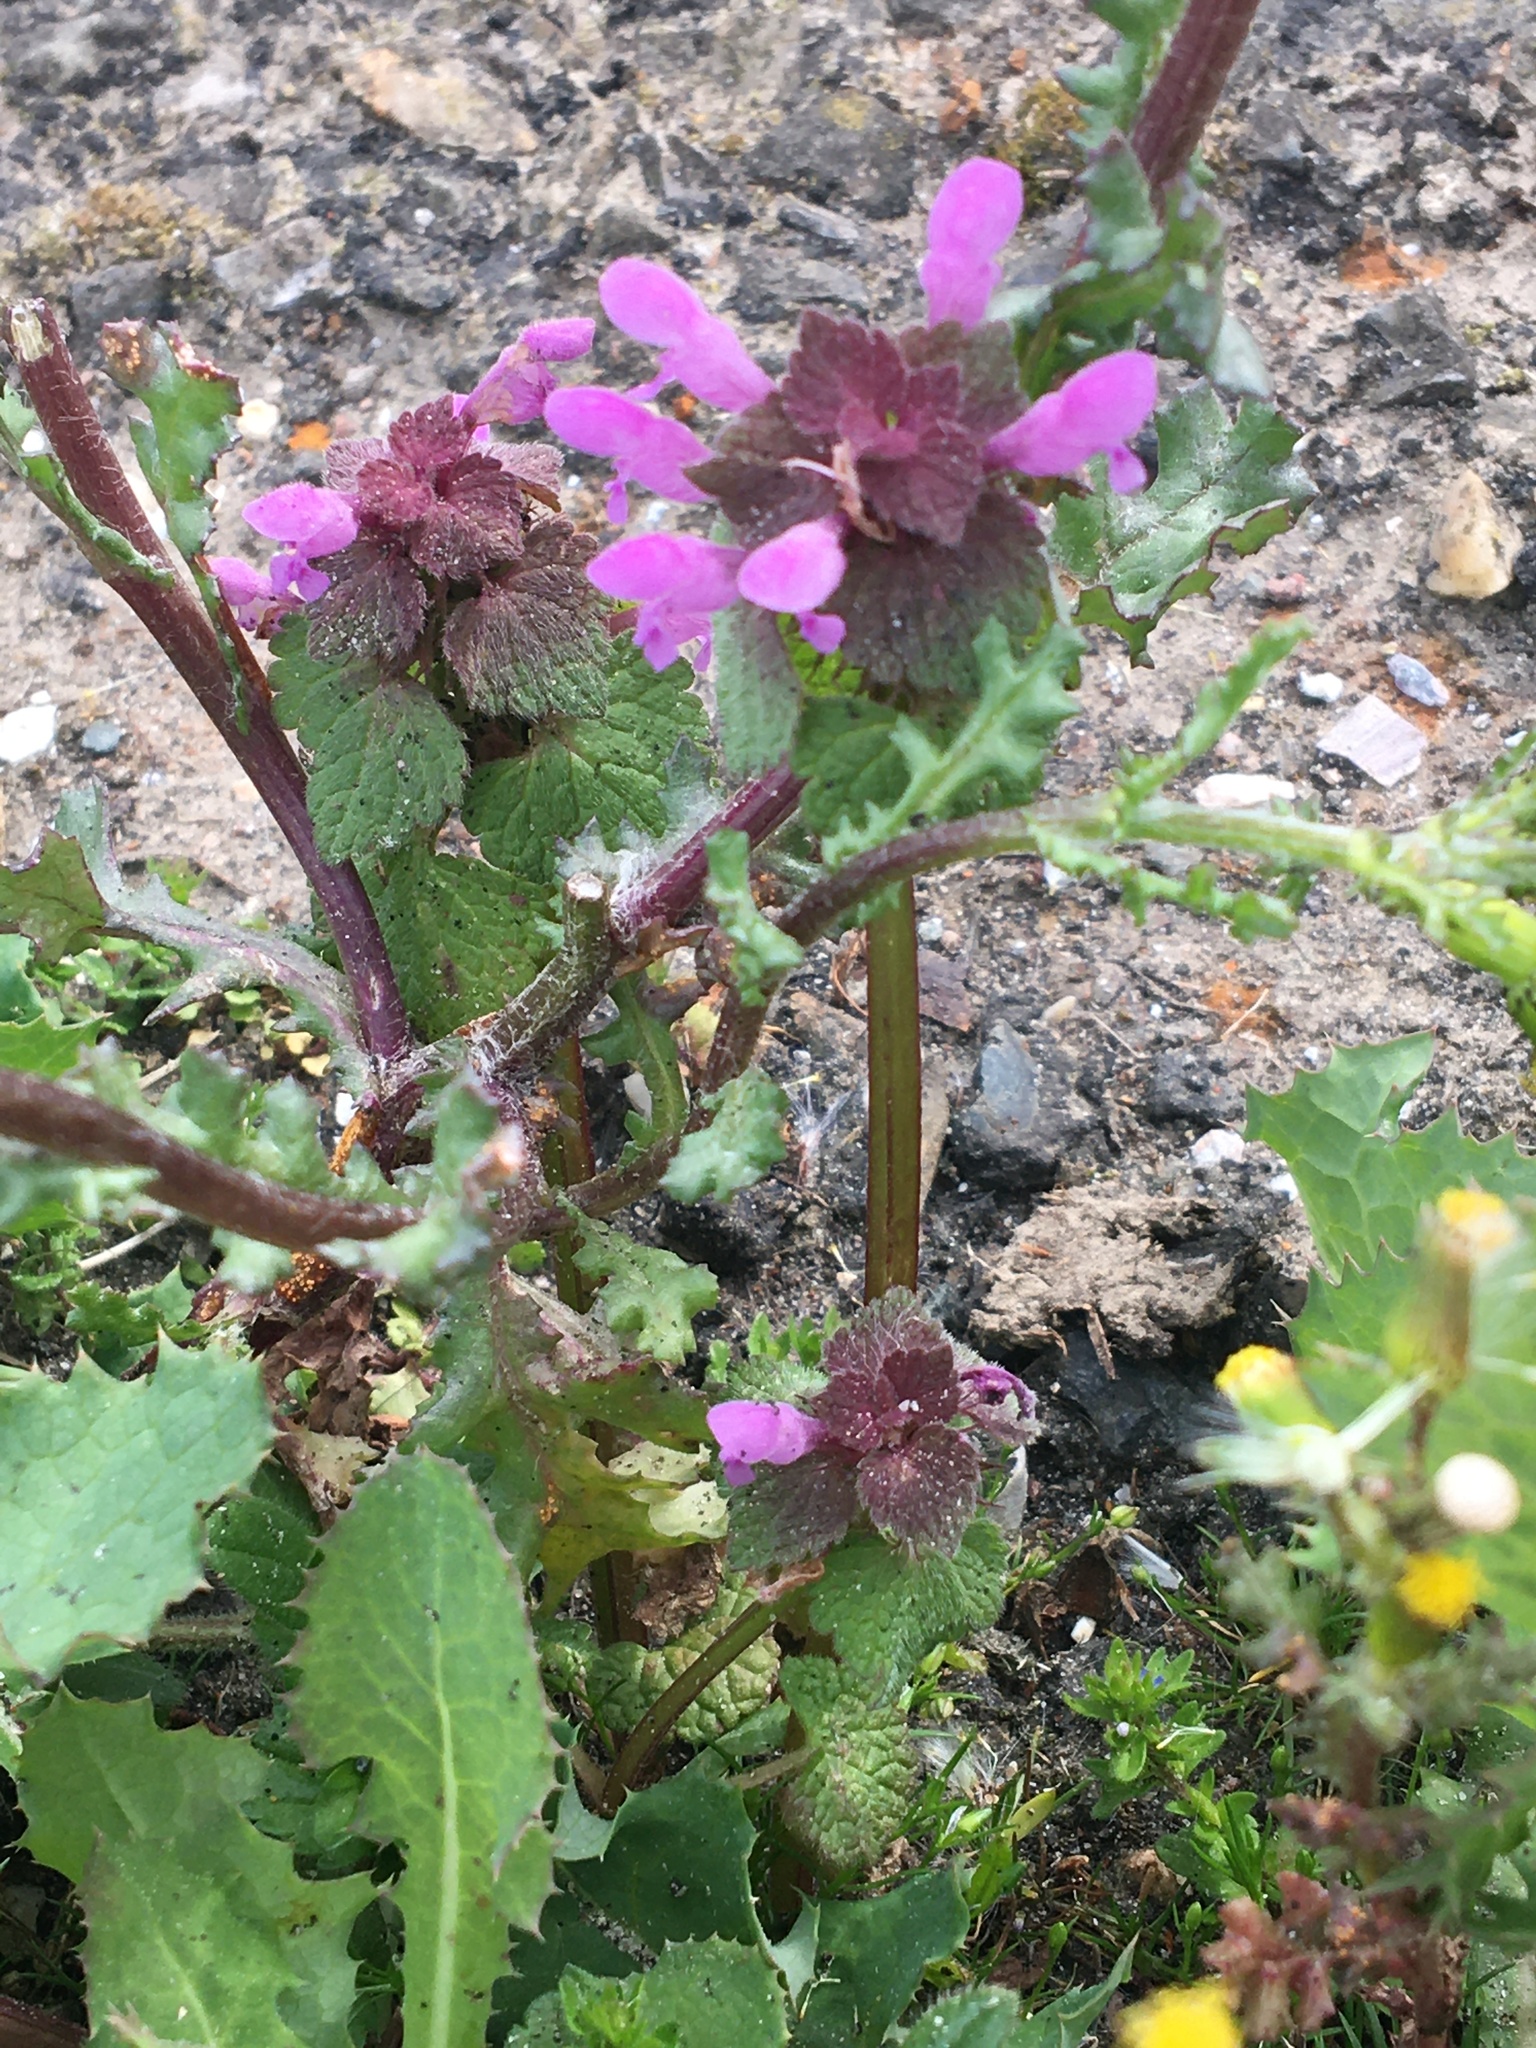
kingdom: Plantae
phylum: Tracheophyta
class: Magnoliopsida
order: Lamiales
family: Lamiaceae
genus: Lamium
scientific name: Lamium purpureum
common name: Red dead-nettle
